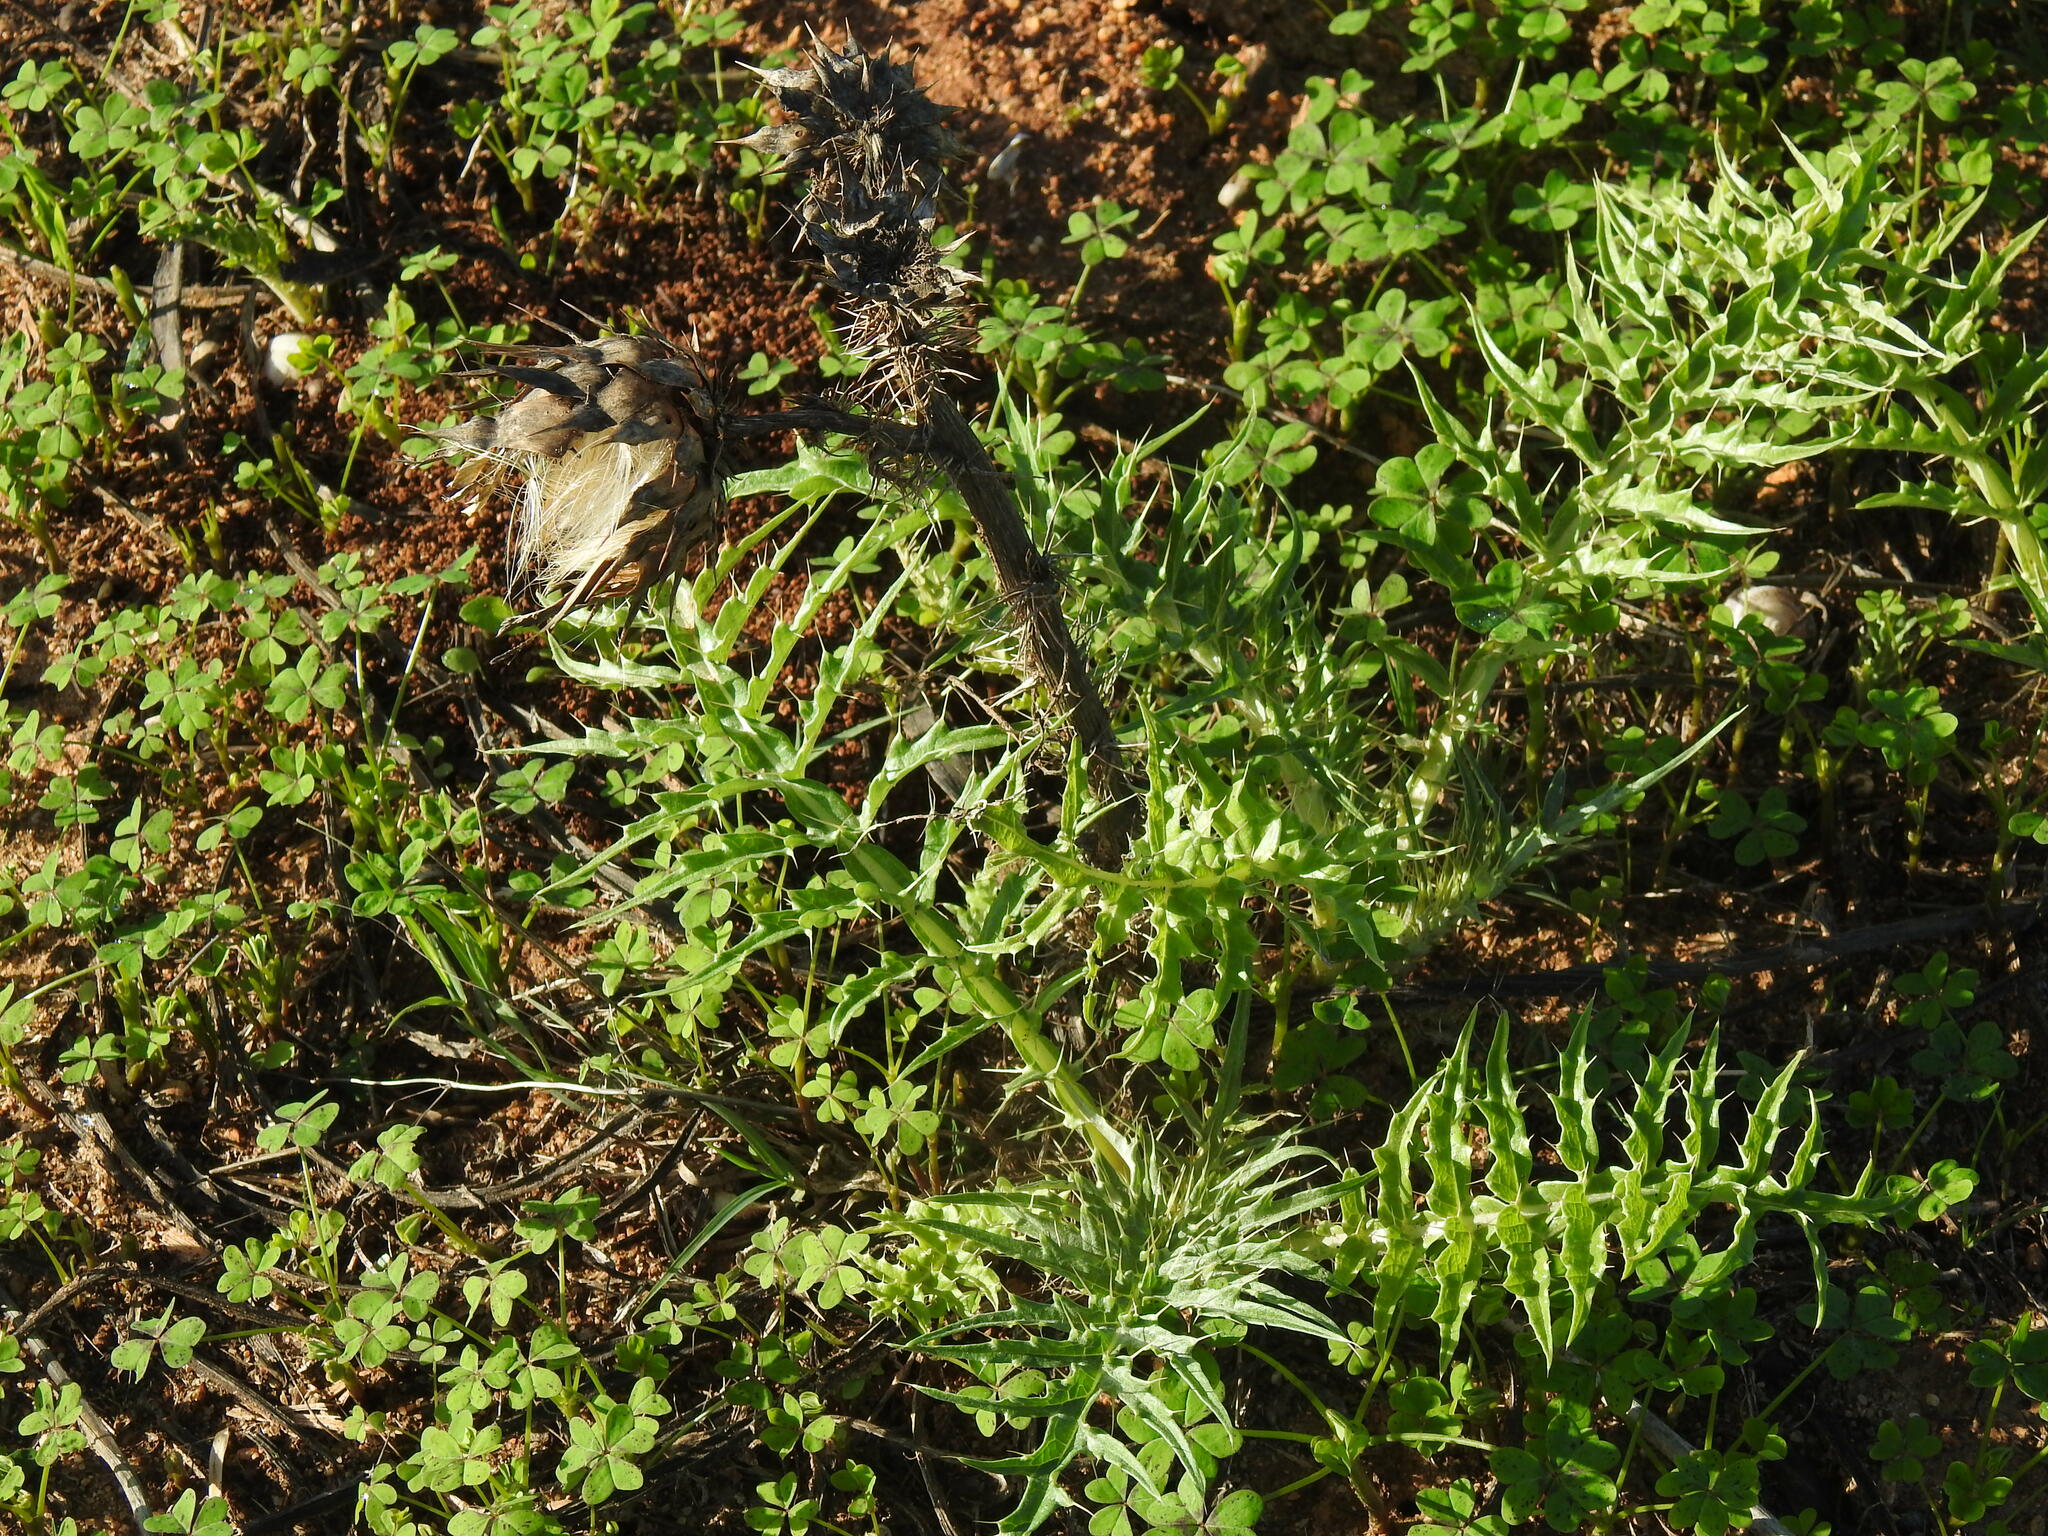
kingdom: Plantae
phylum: Tracheophyta
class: Magnoliopsida
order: Asterales
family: Asteraceae
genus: Cynara
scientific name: Cynara cardunculus
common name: Globe artichoke
